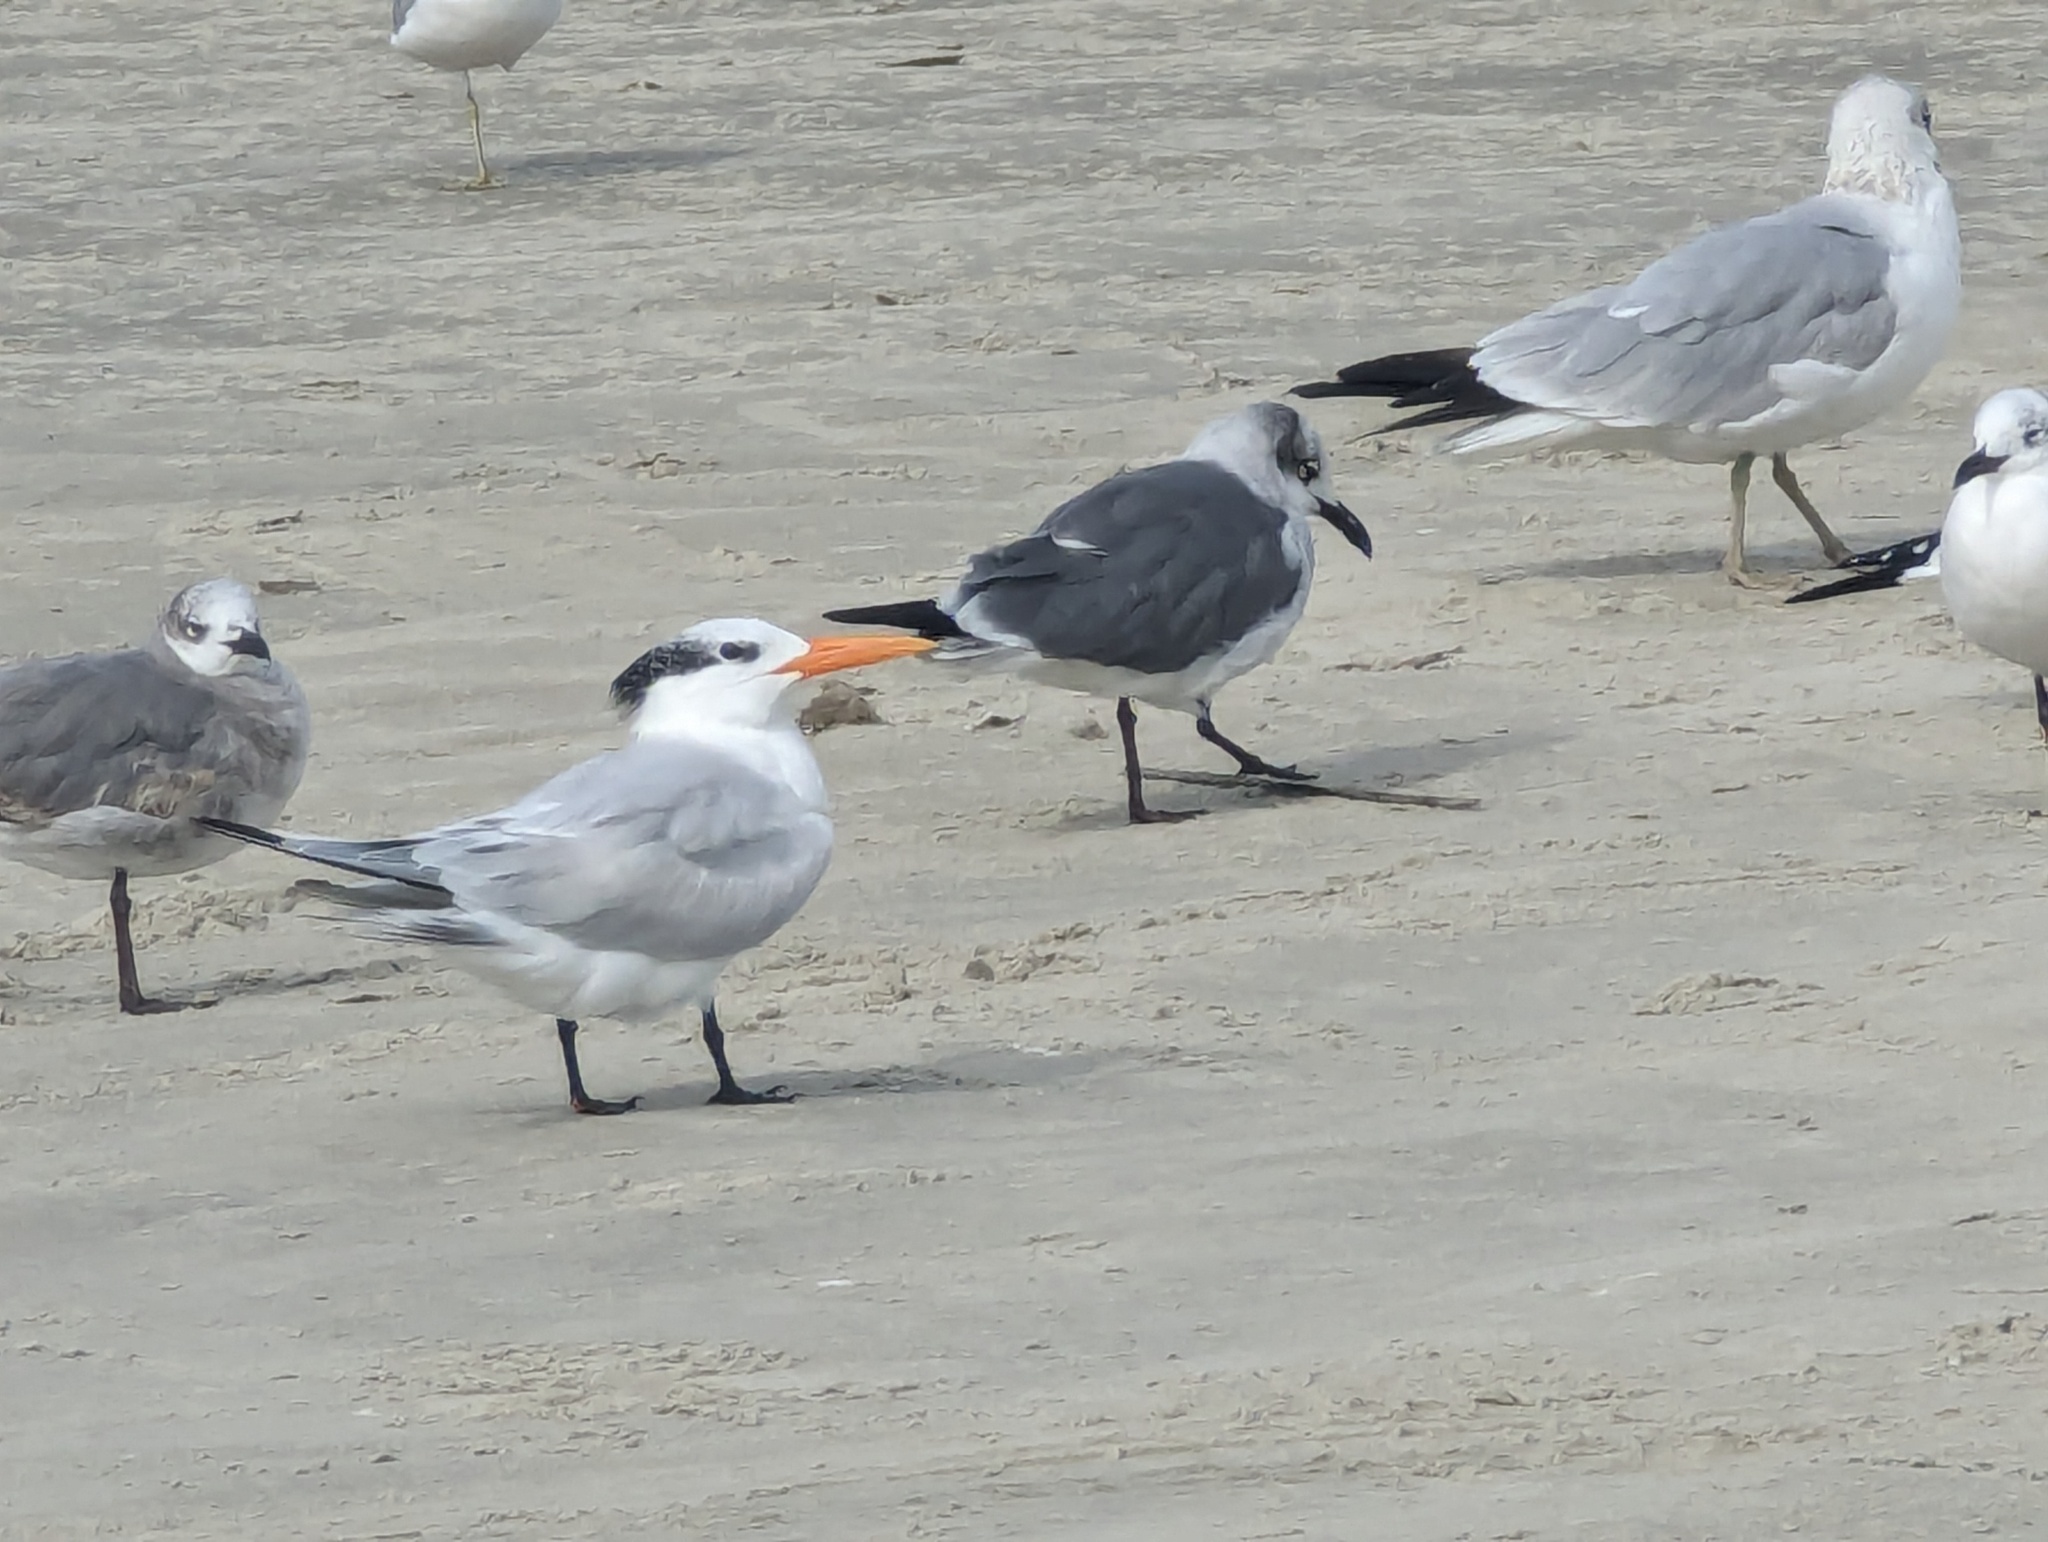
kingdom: Animalia
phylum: Chordata
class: Aves
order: Charadriiformes
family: Laridae
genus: Thalasseus
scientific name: Thalasseus maximus
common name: Royal tern
